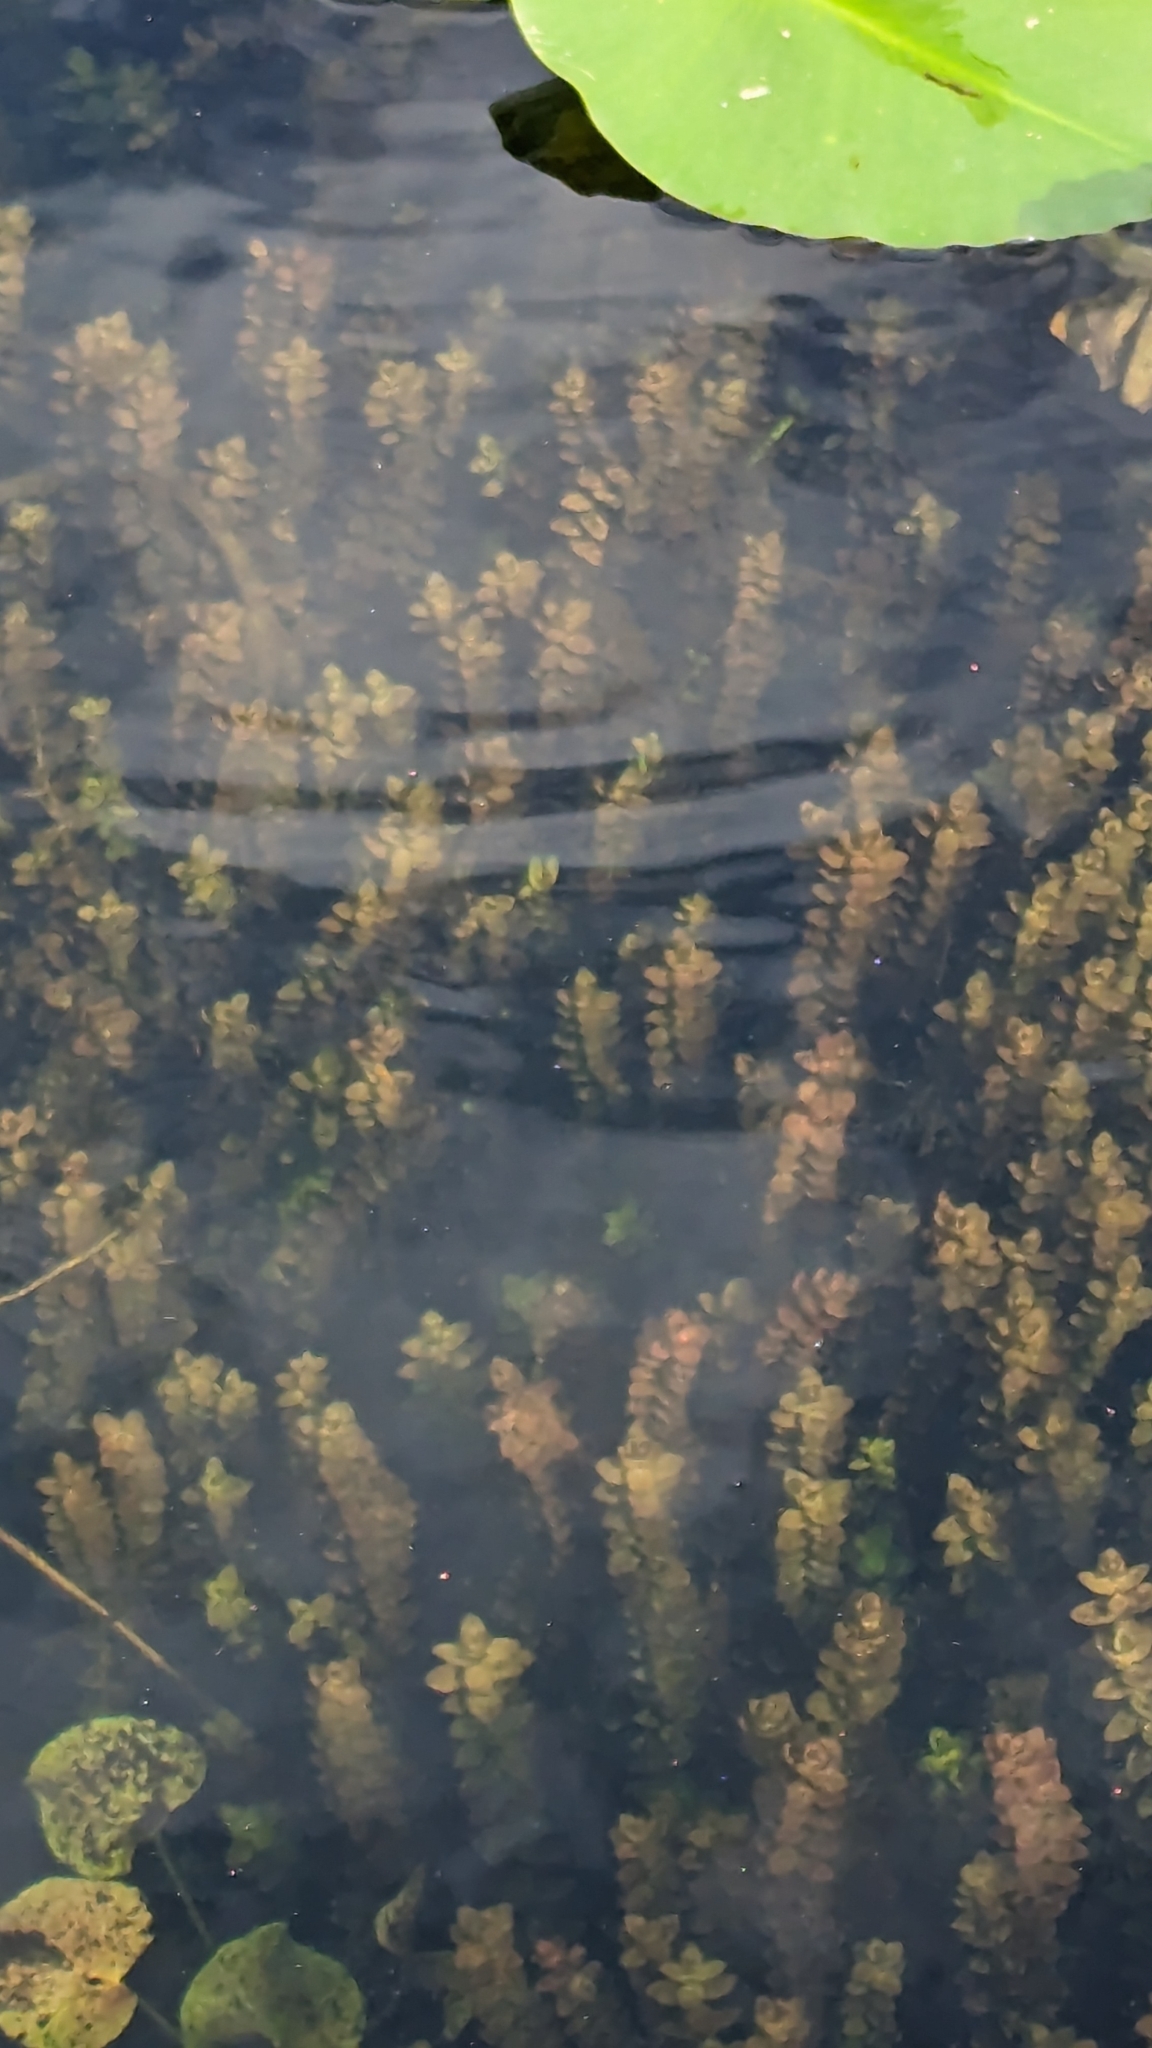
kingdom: Plantae
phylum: Tracheophyta
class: Magnoliopsida
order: Myrtales
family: Onagraceae
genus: Ludwigia
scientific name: Ludwigia repens
